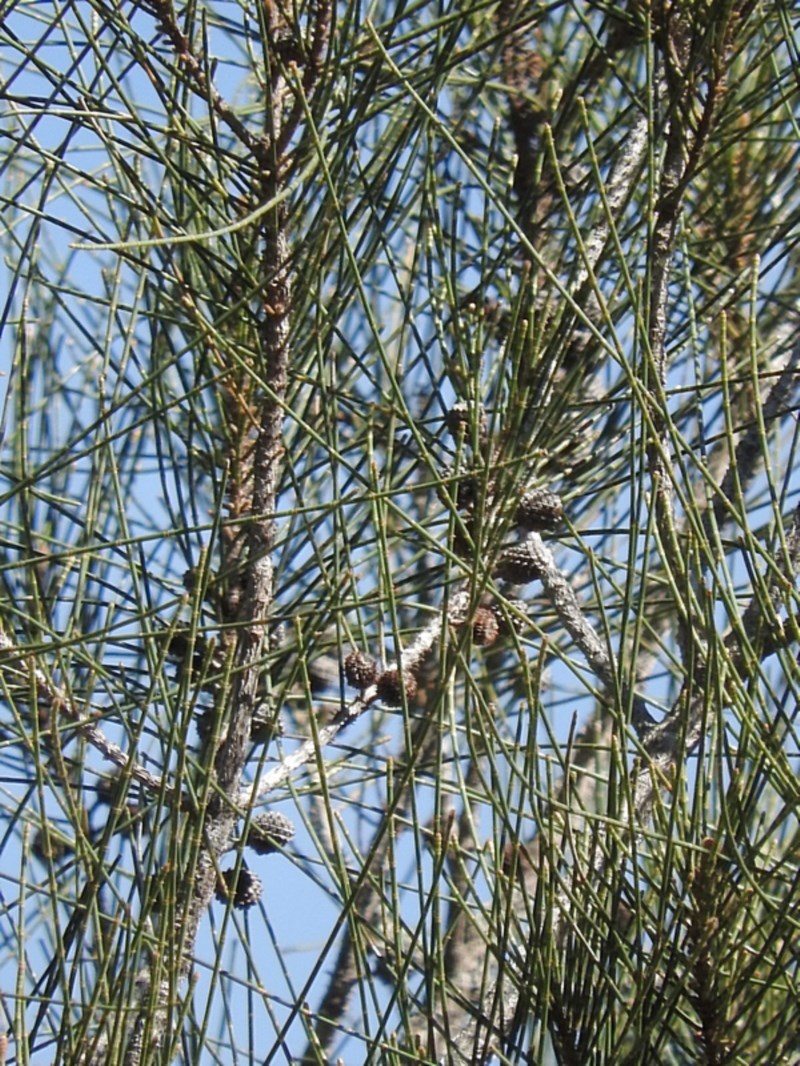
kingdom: Plantae
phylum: Tracheophyta
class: Magnoliopsida
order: Fagales
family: Casuarinaceae
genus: Casuarina
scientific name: Casuarina glauca
